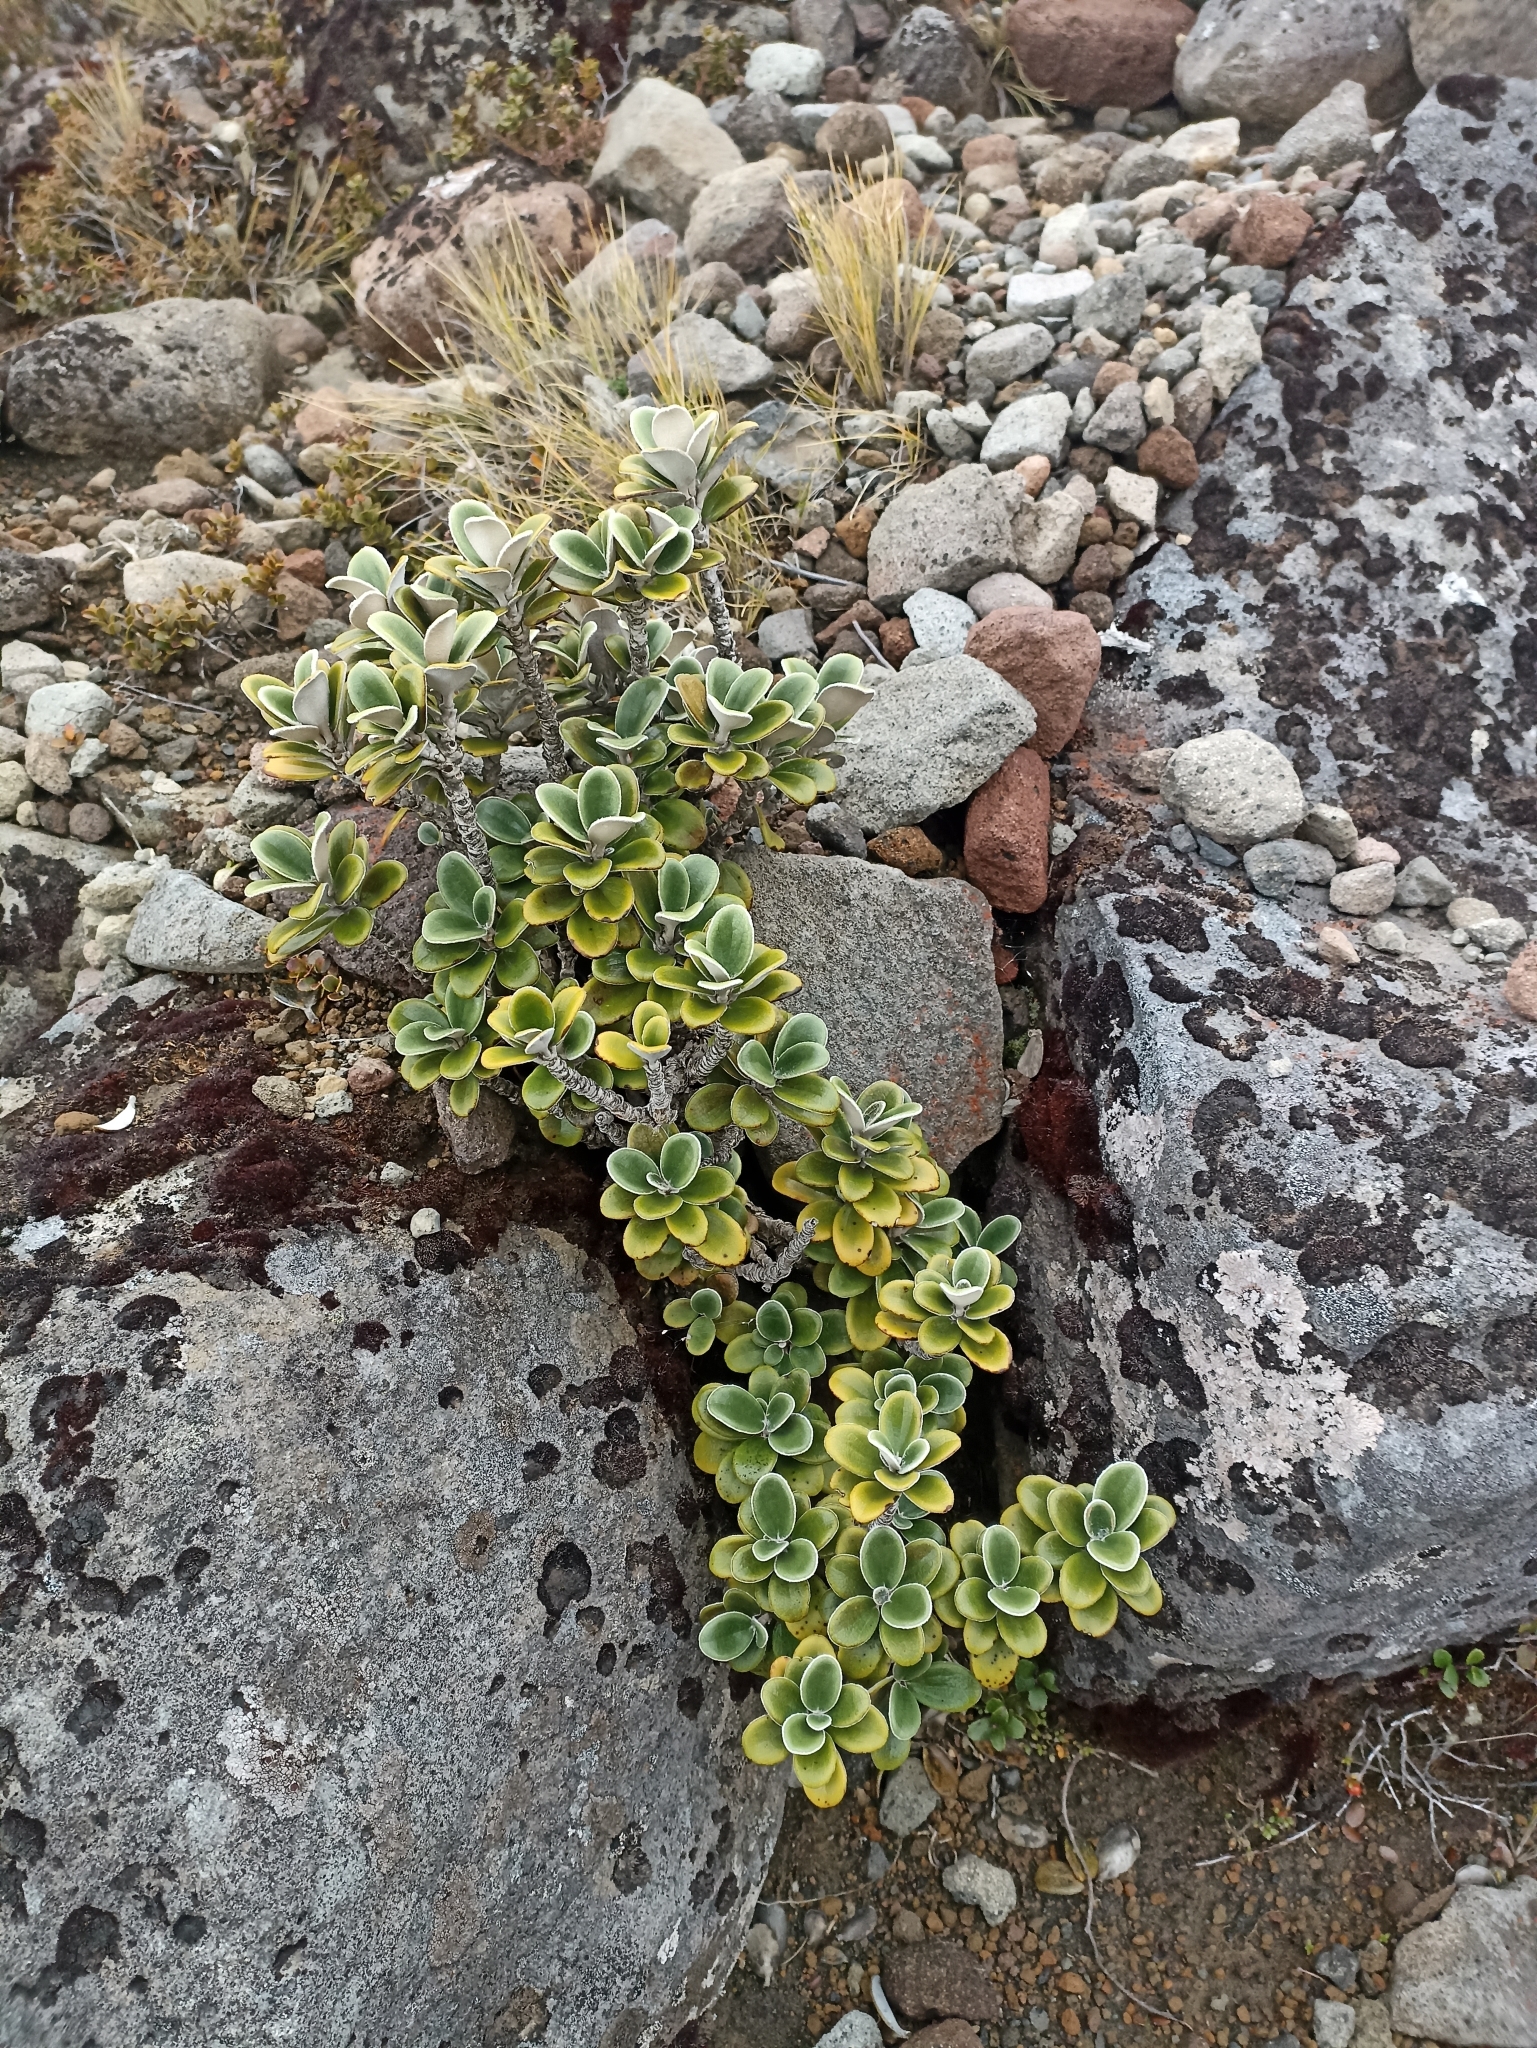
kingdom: Plantae
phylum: Tracheophyta
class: Magnoliopsida
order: Asterales
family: Asteraceae
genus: Brachyglottis
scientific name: Brachyglottis bidwillii
